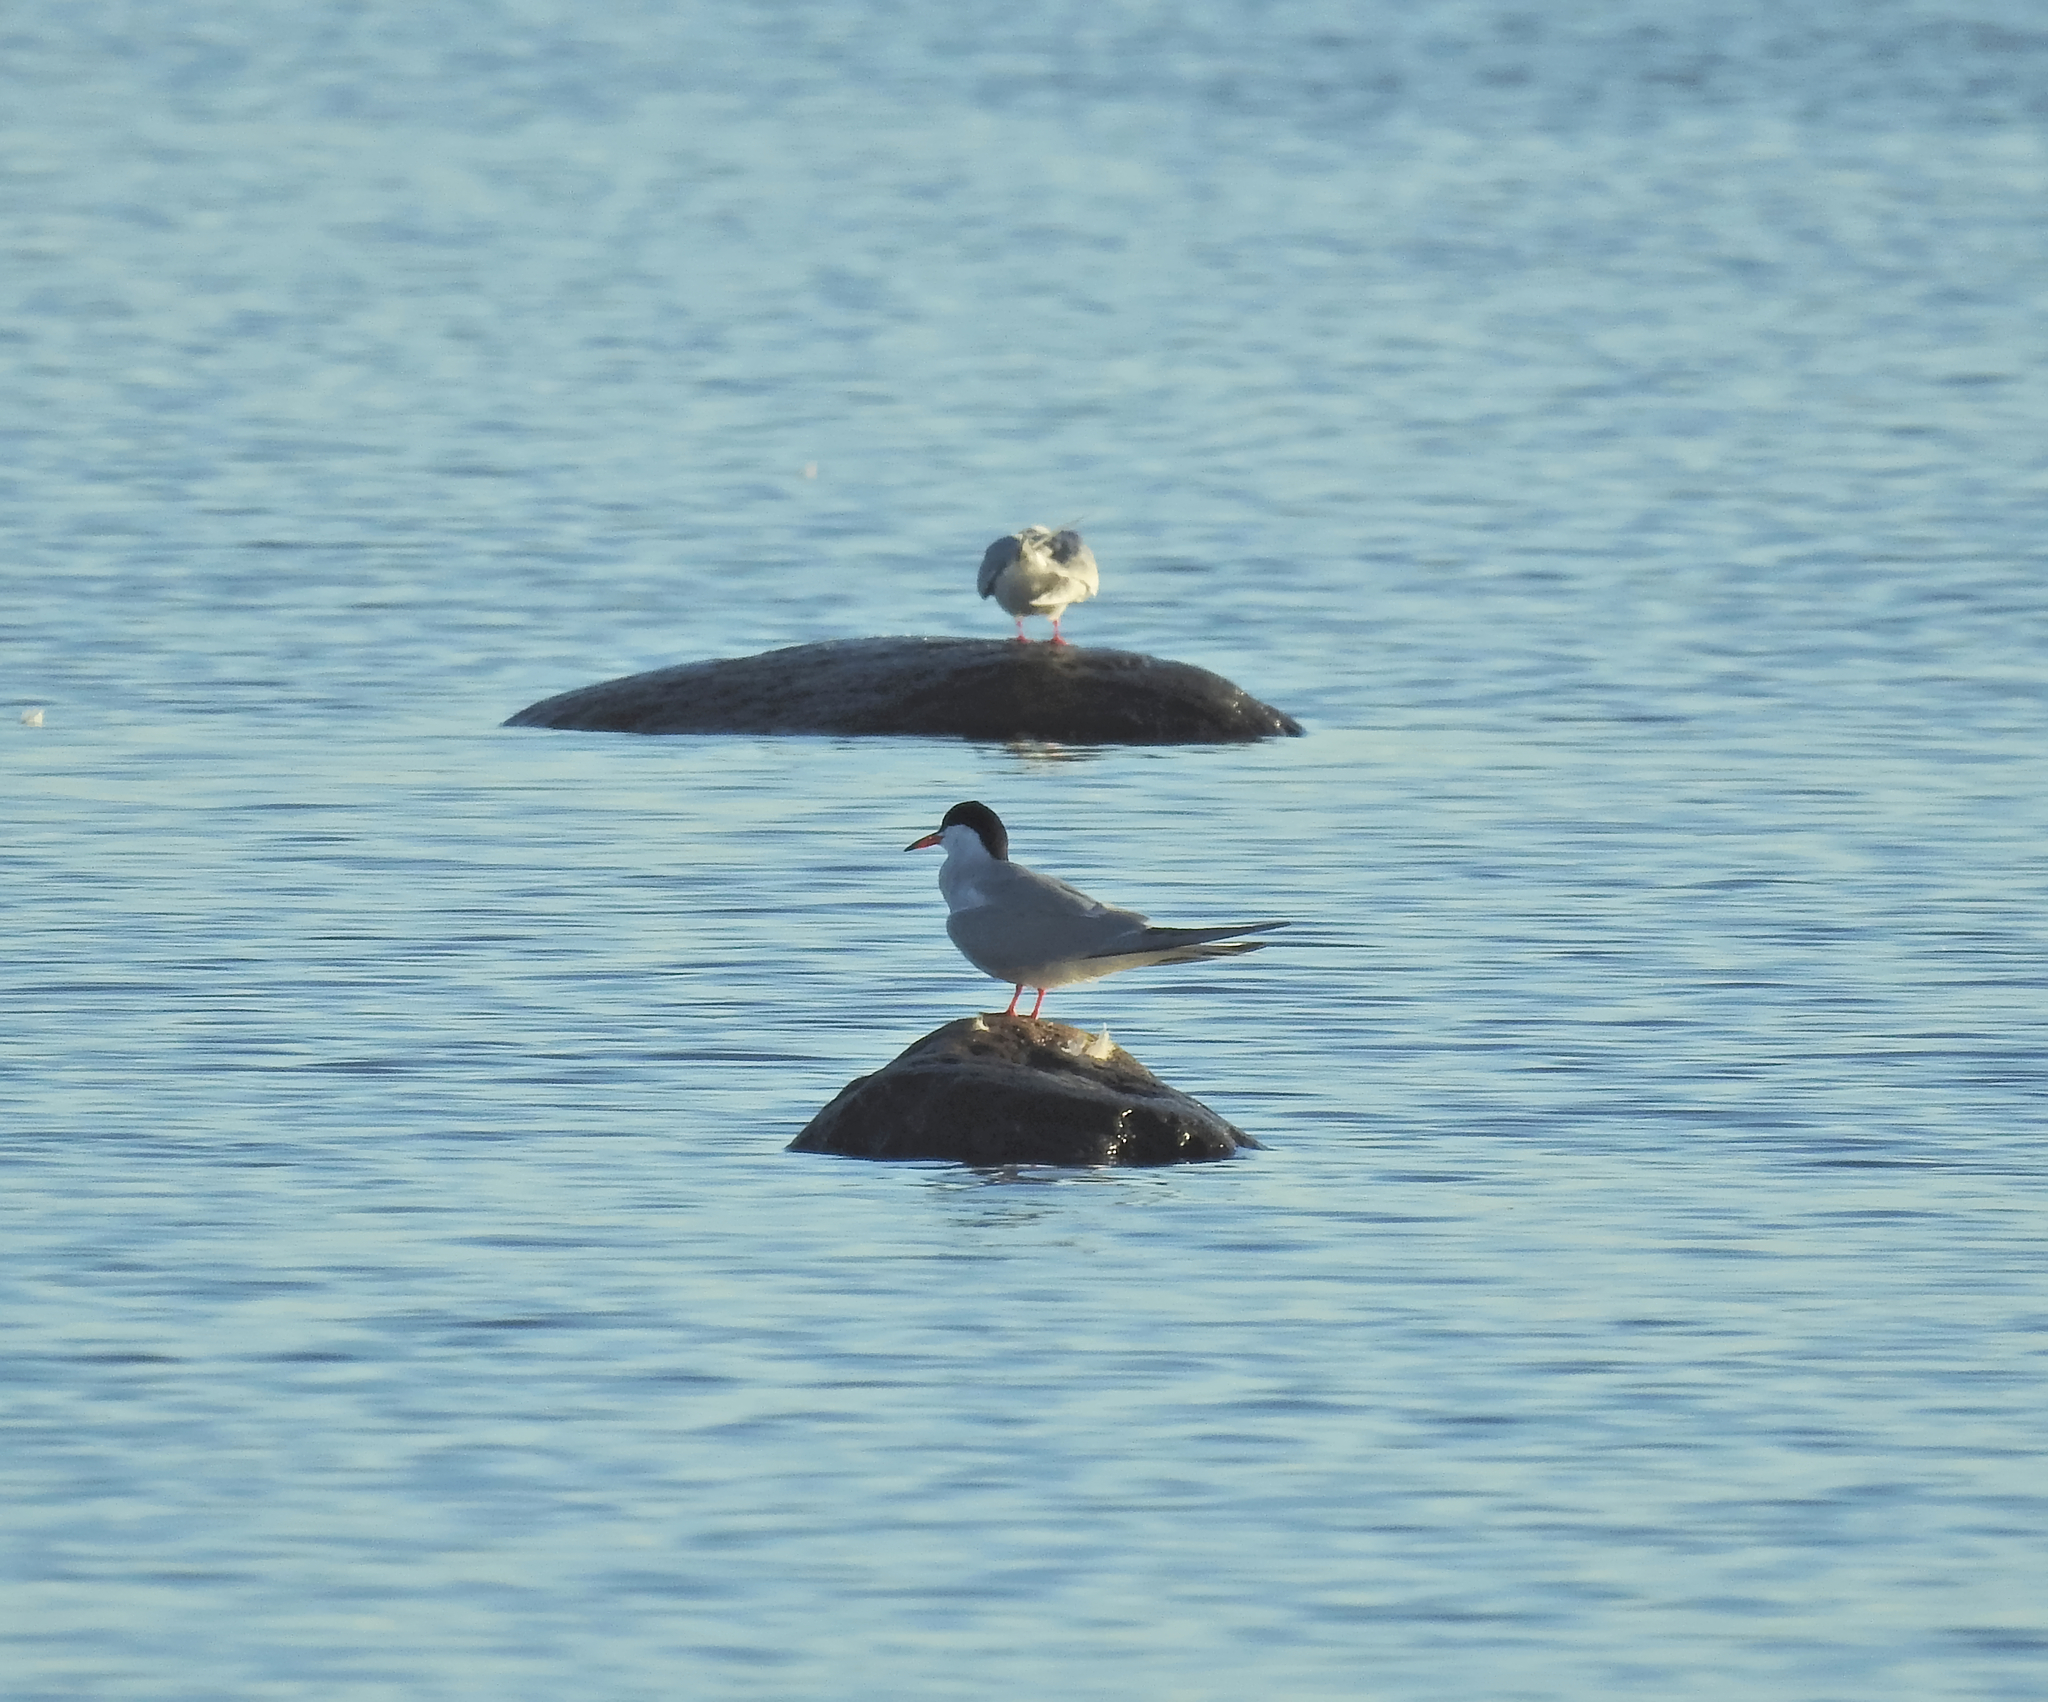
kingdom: Animalia
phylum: Chordata
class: Aves
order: Charadriiformes
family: Laridae
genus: Sterna
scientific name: Sterna hirundo
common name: Common tern
